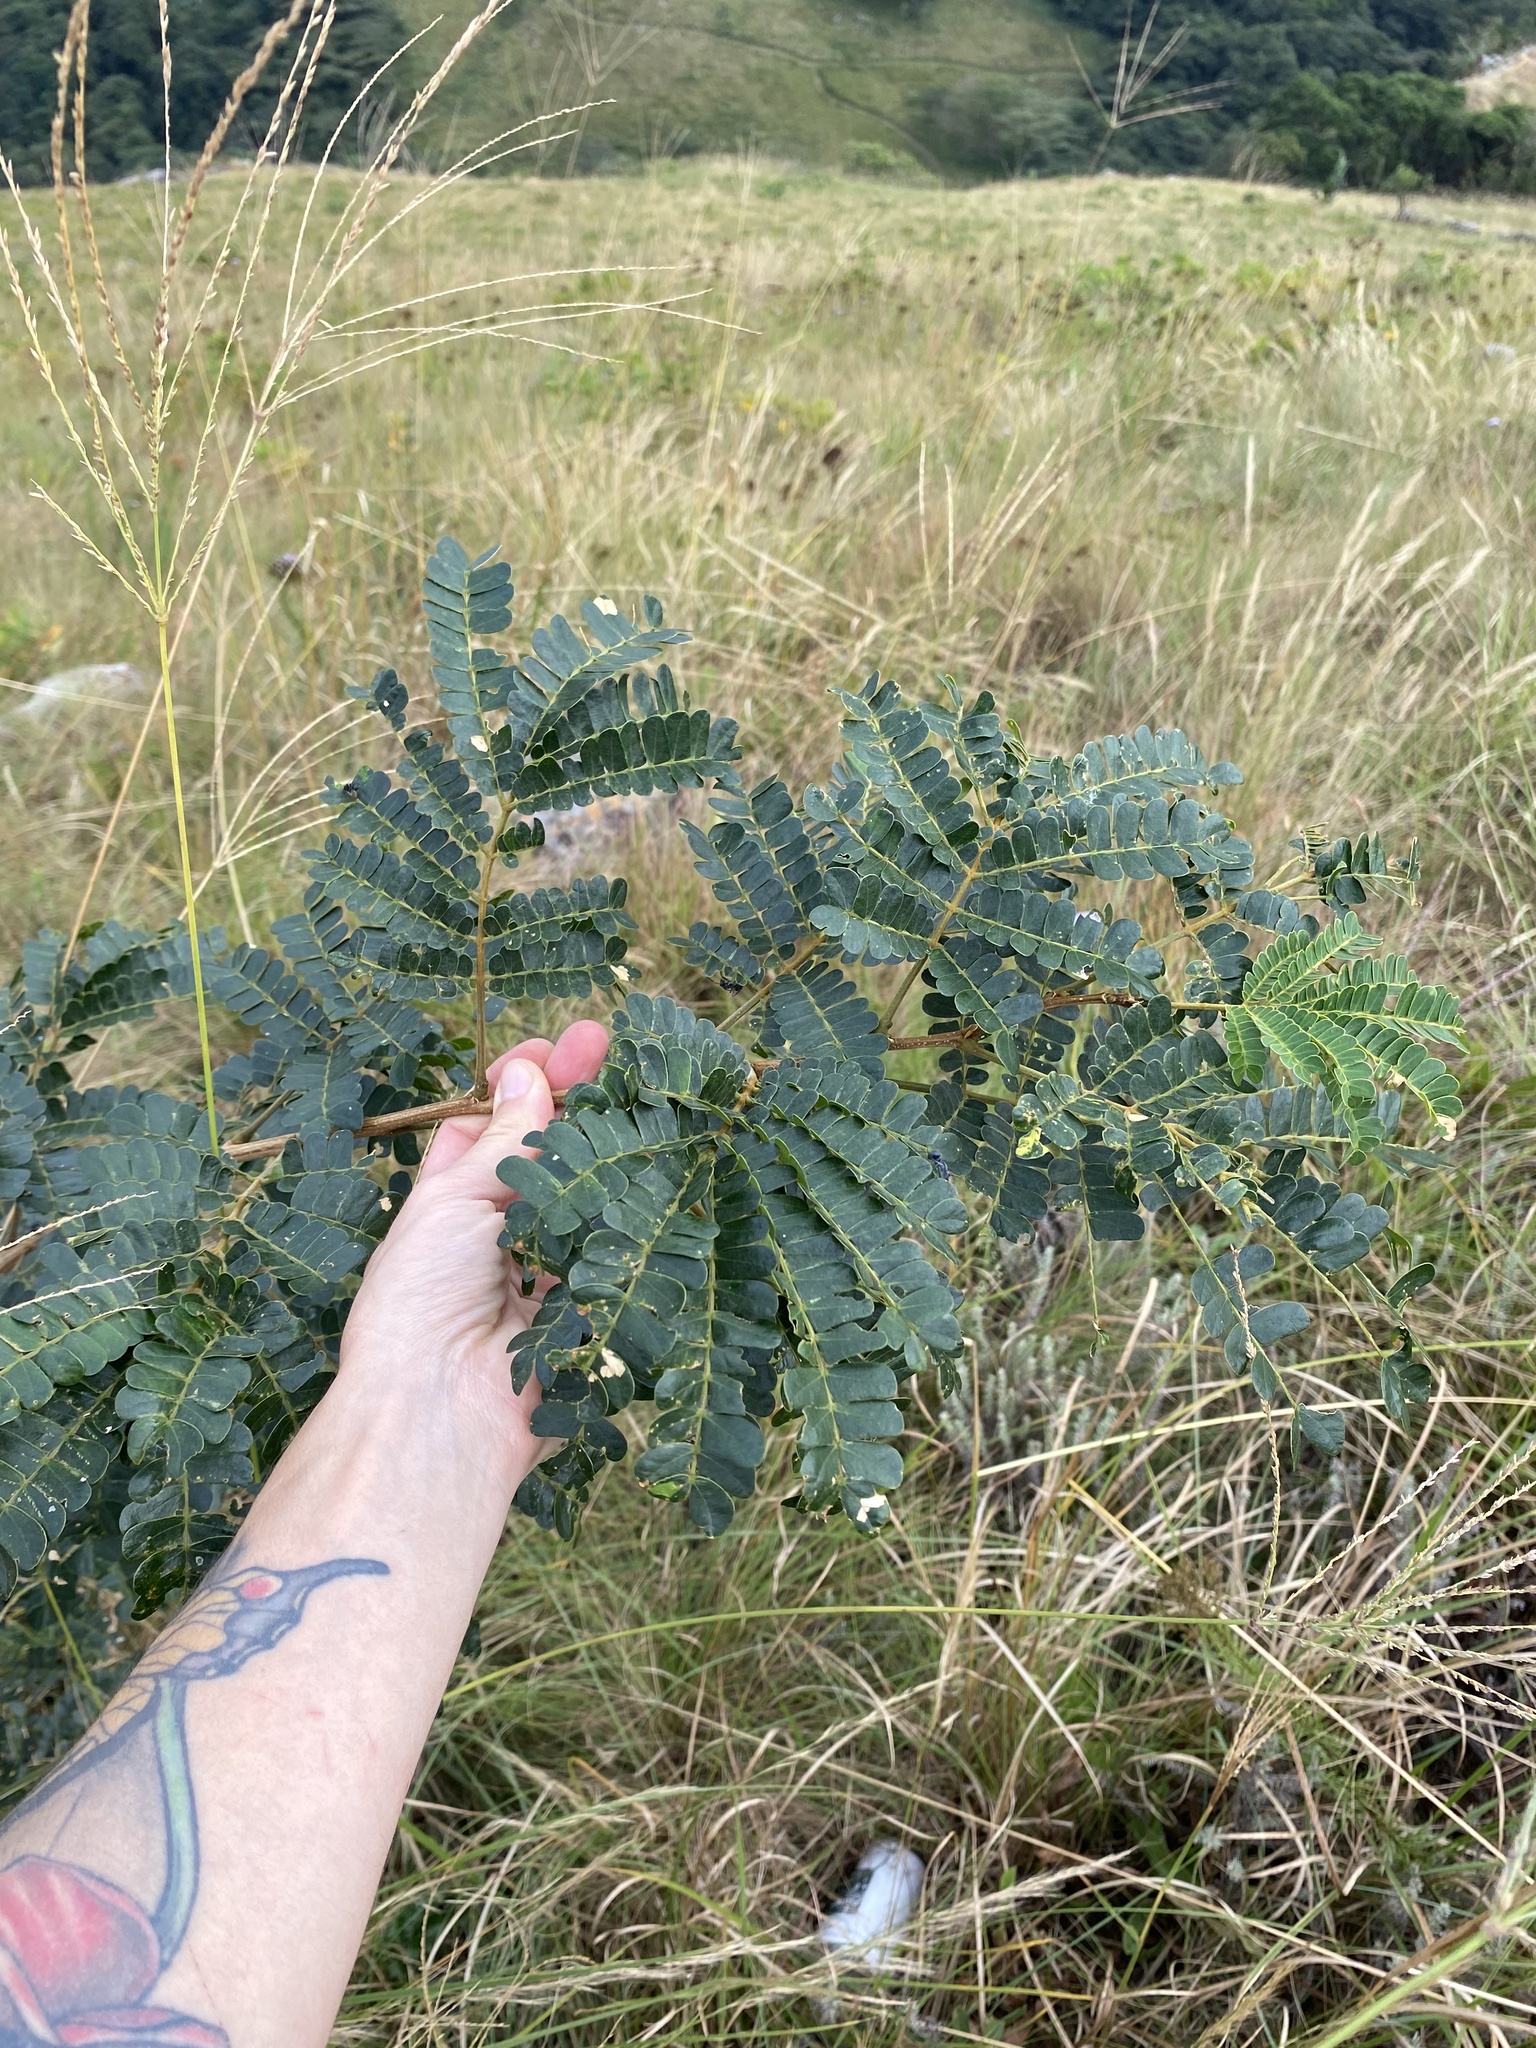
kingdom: Plantae
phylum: Tracheophyta
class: Magnoliopsida
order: Fabales
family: Fabaceae
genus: Albizia
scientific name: Albizia adianthifolia
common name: West african albizia
